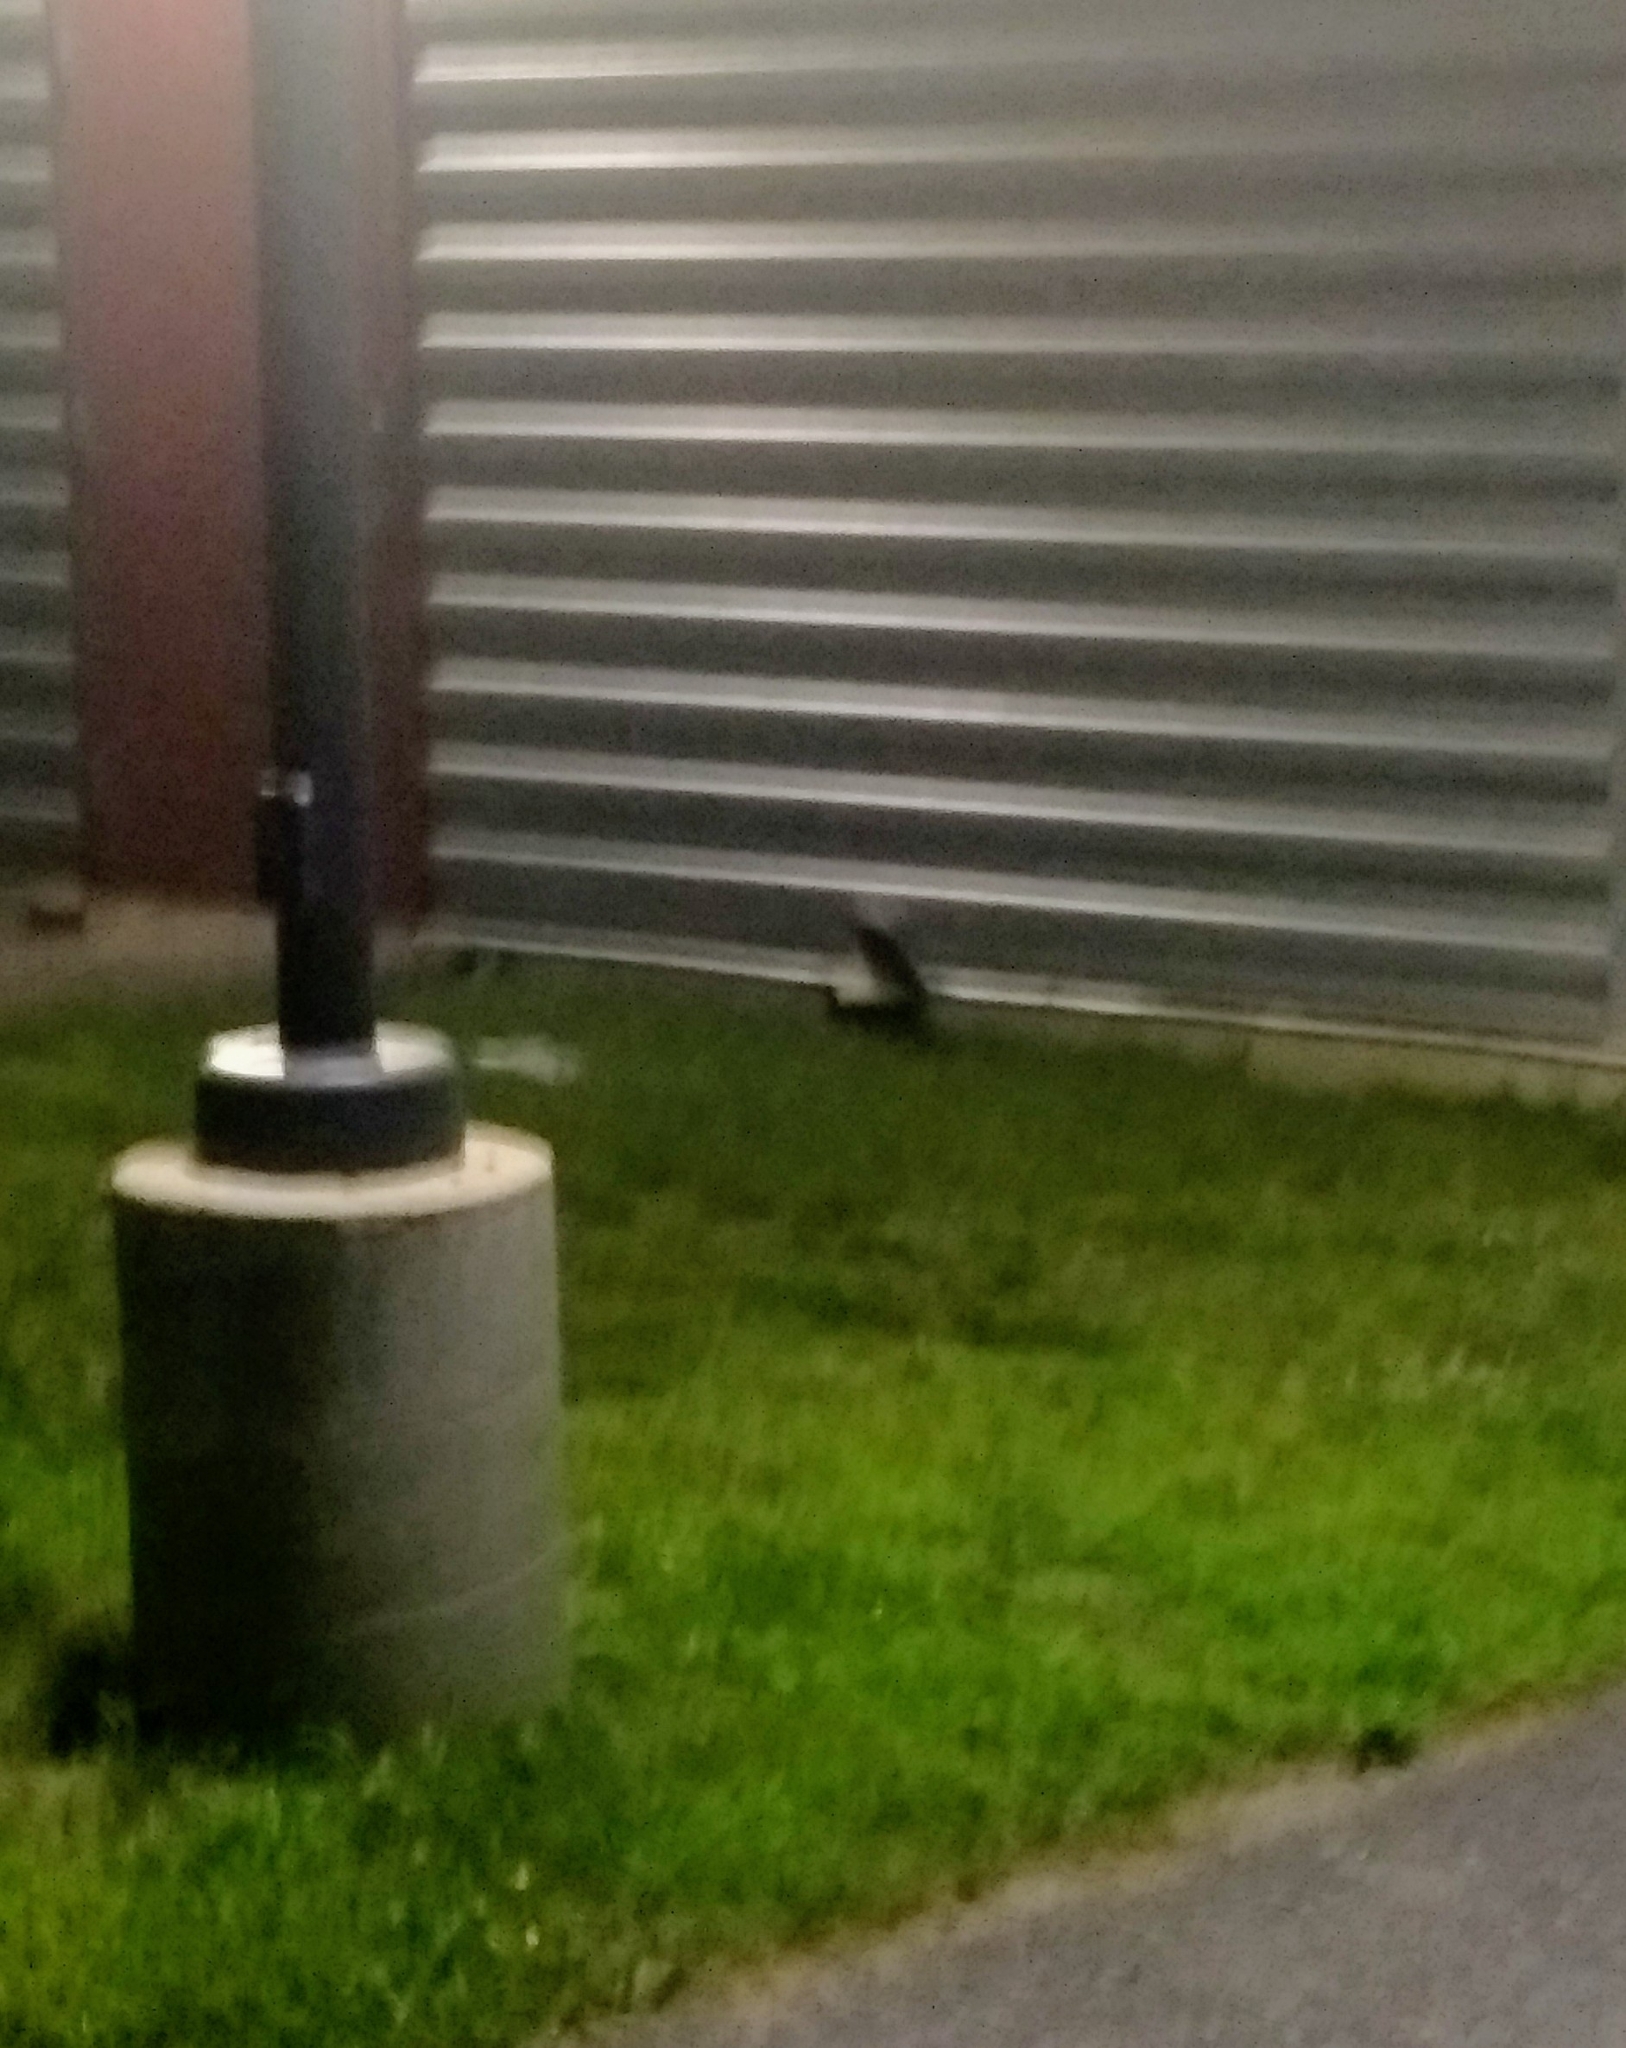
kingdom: Animalia
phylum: Chordata
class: Mammalia
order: Carnivora
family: Mephitidae
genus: Mephitis
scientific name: Mephitis mephitis
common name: Striped skunk
